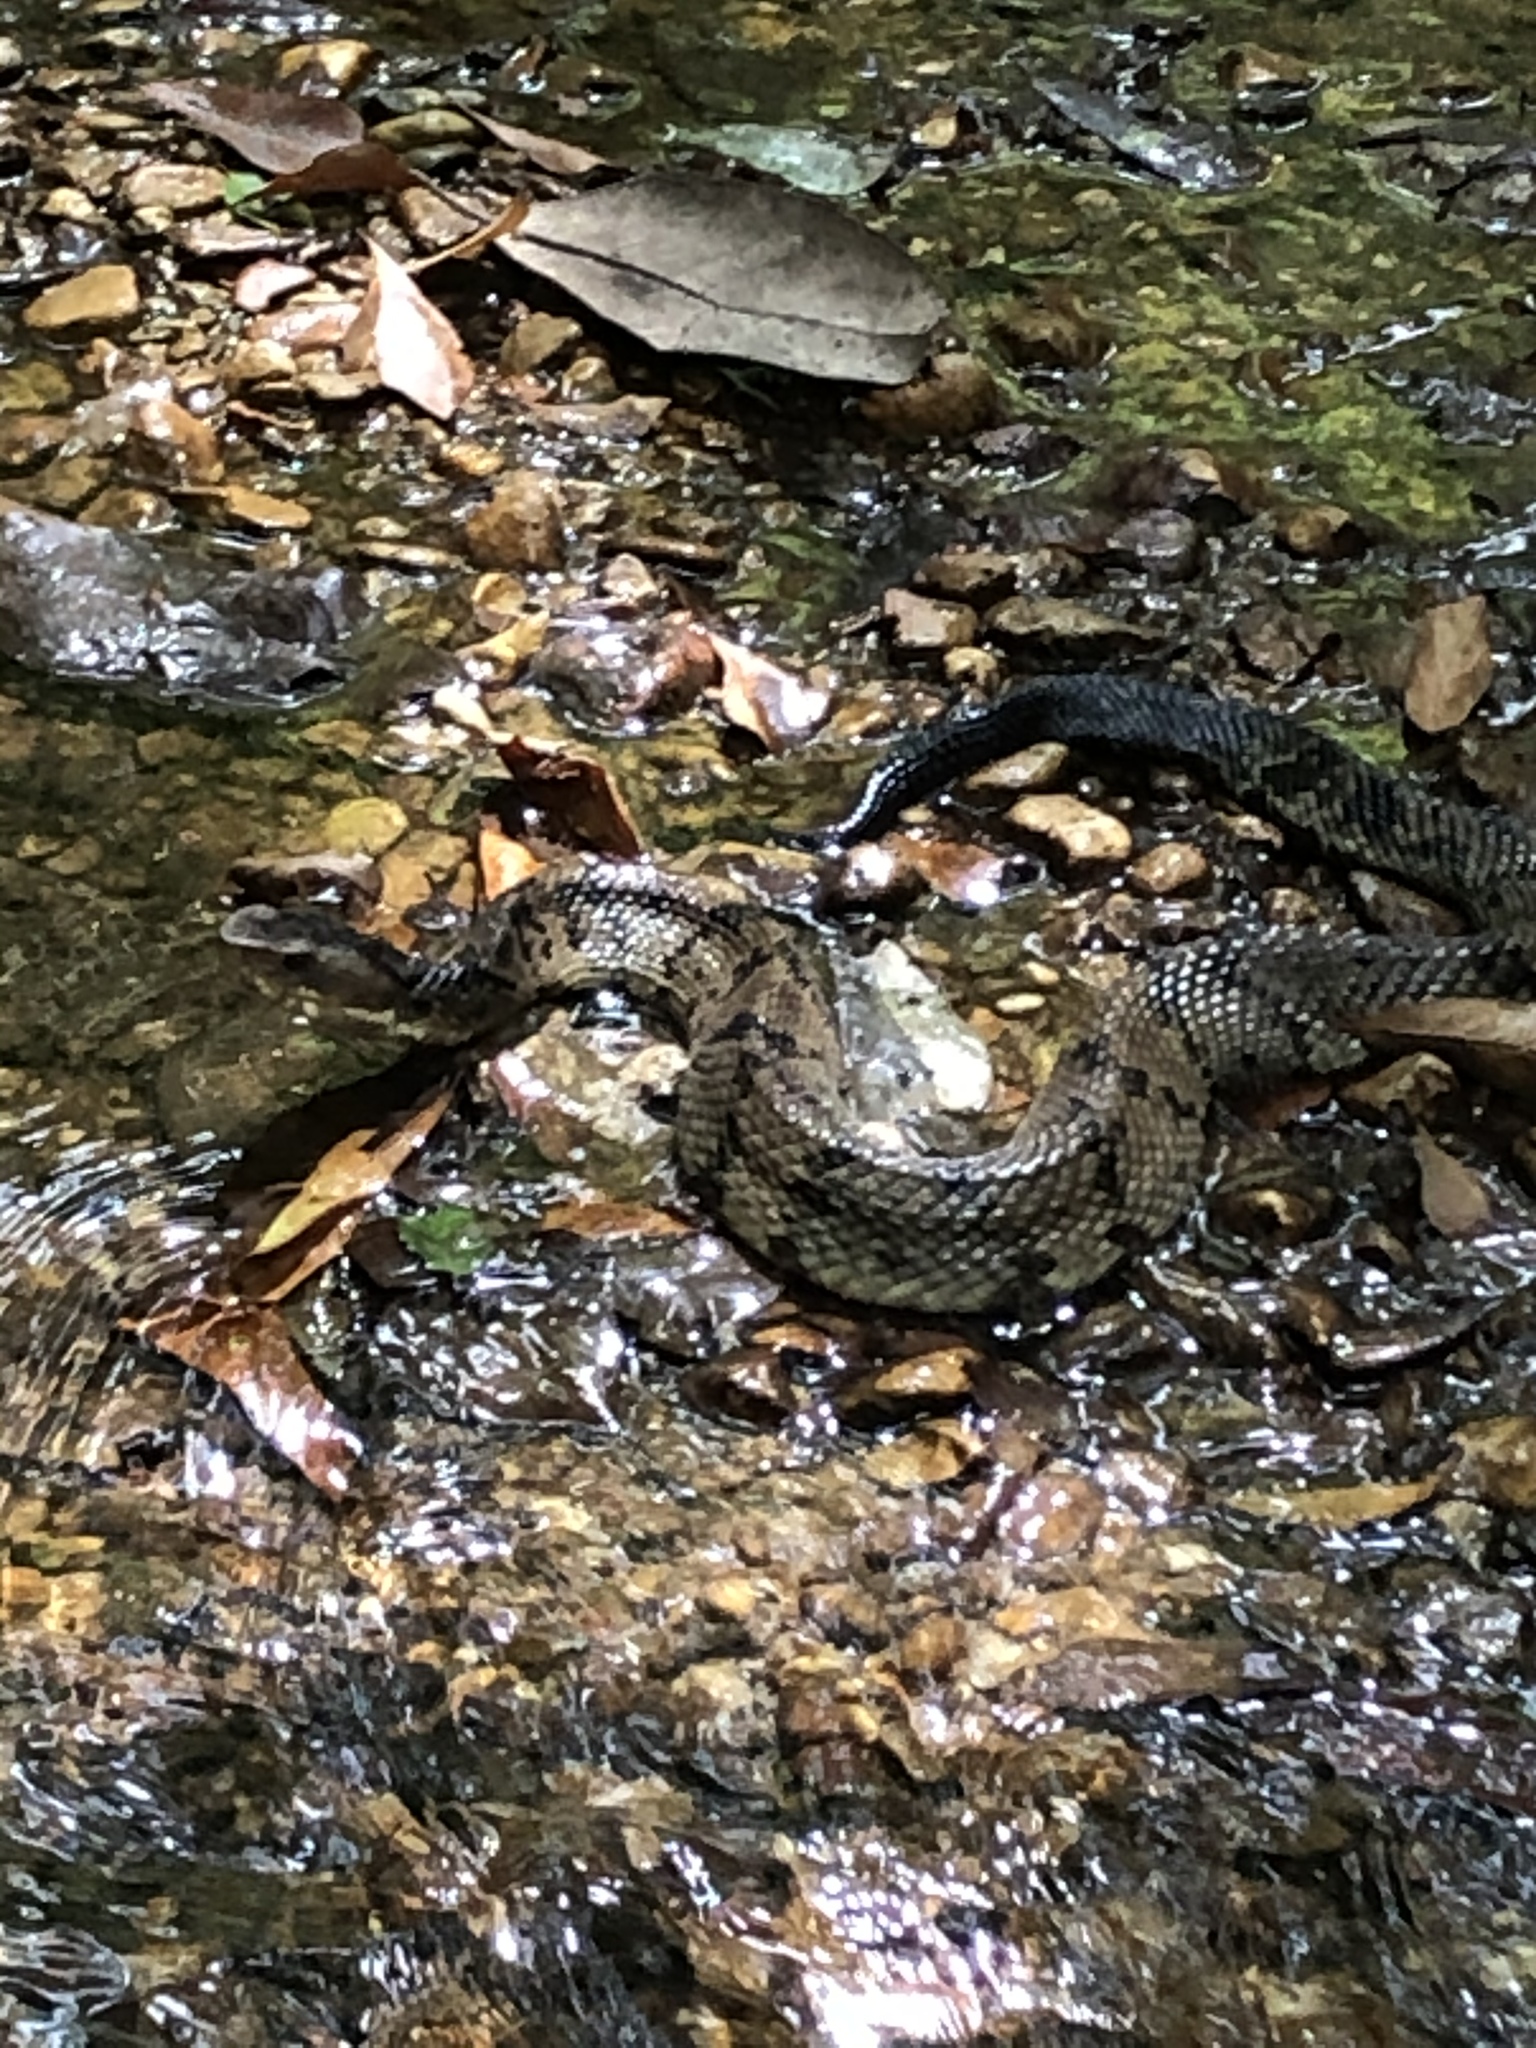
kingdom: Animalia
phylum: Chordata
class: Squamata
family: Viperidae
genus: Agkistrodon
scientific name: Agkistrodon piscivorus
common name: Cottonmouth
